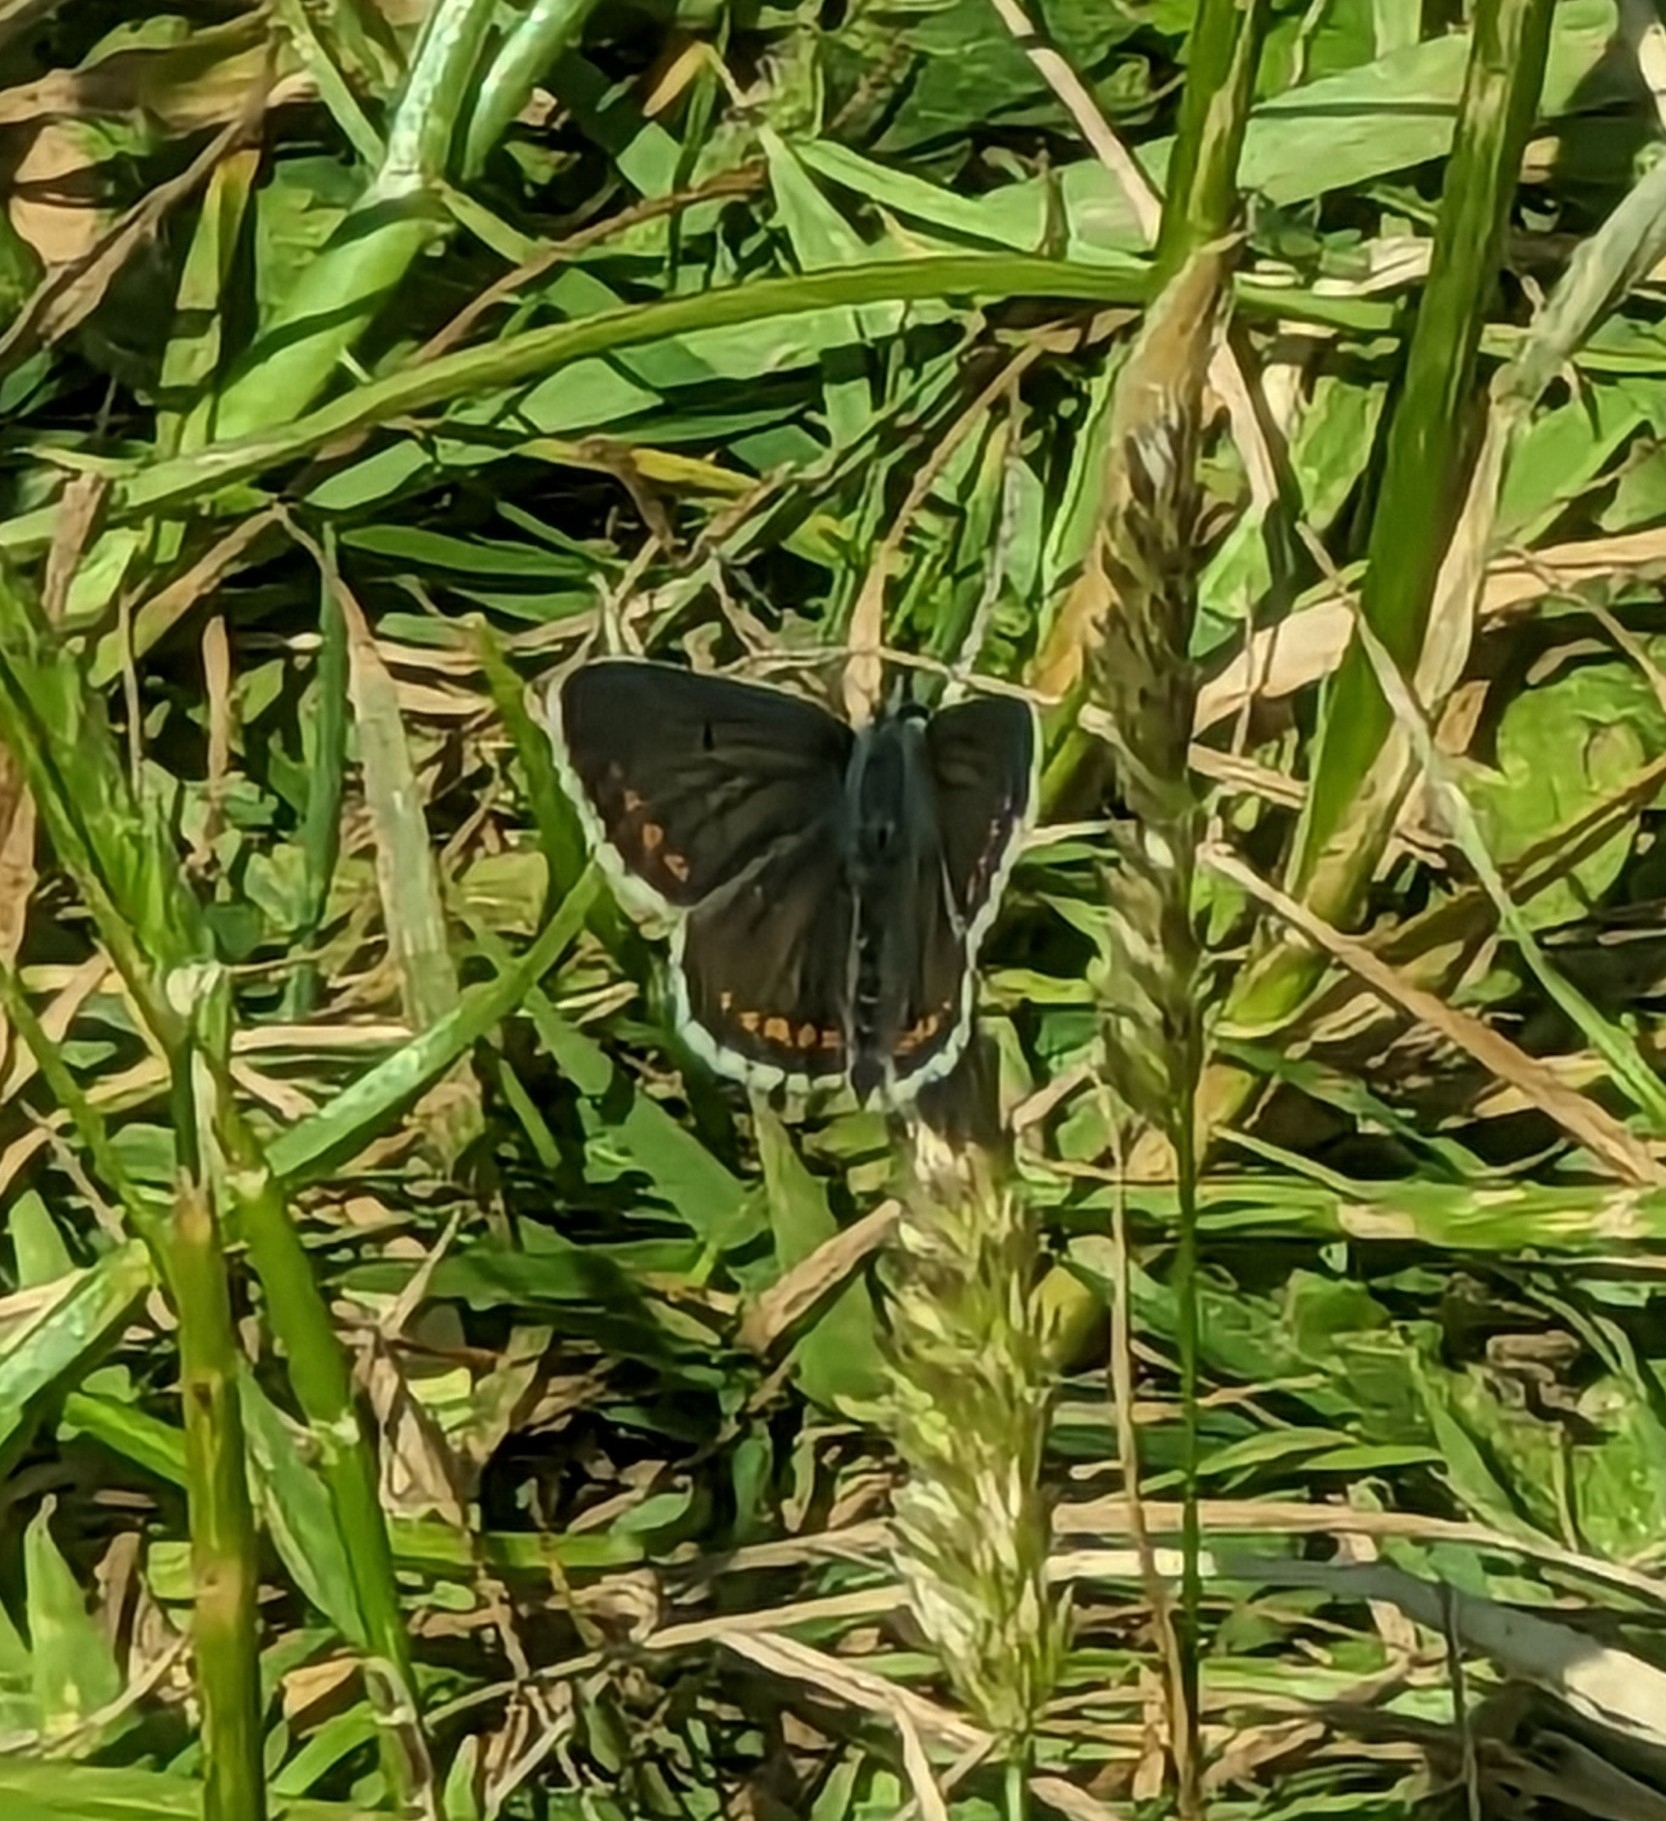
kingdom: Animalia
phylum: Arthropoda
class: Insecta
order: Lepidoptera
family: Lycaenidae
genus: Aricia
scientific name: Aricia agestis
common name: Brown argus
